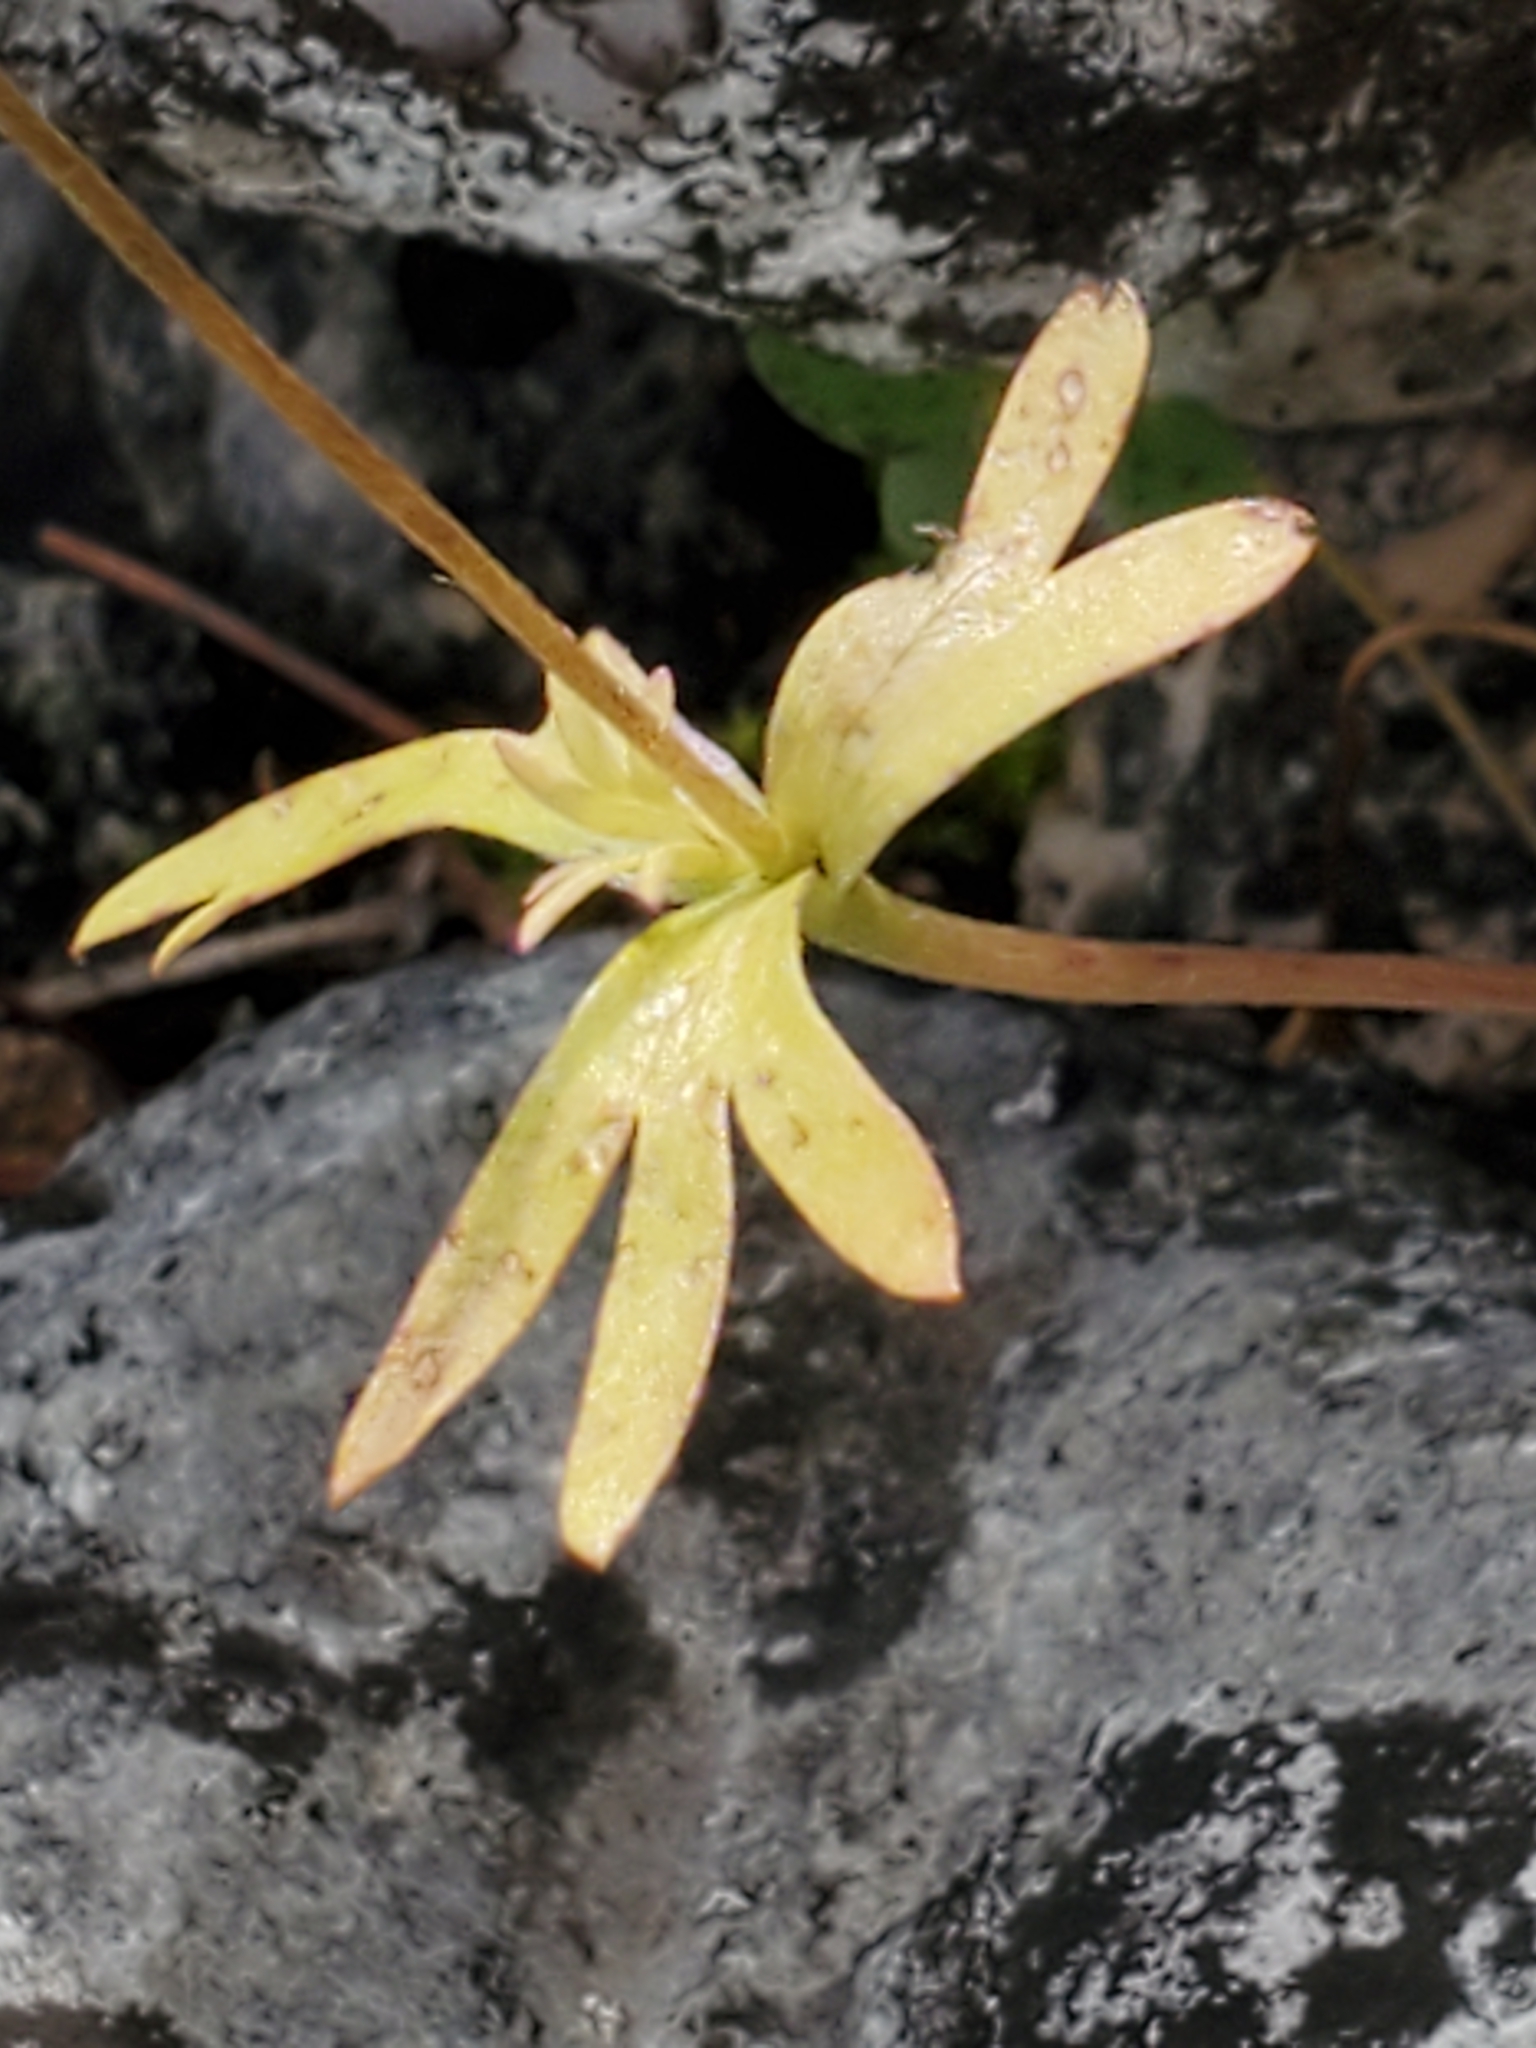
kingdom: Plantae
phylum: Tracheophyta
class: Magnoliopsida
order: Ranunculales
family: Ranunculaceae
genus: Anemone
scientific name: Anemone edwardsiana
